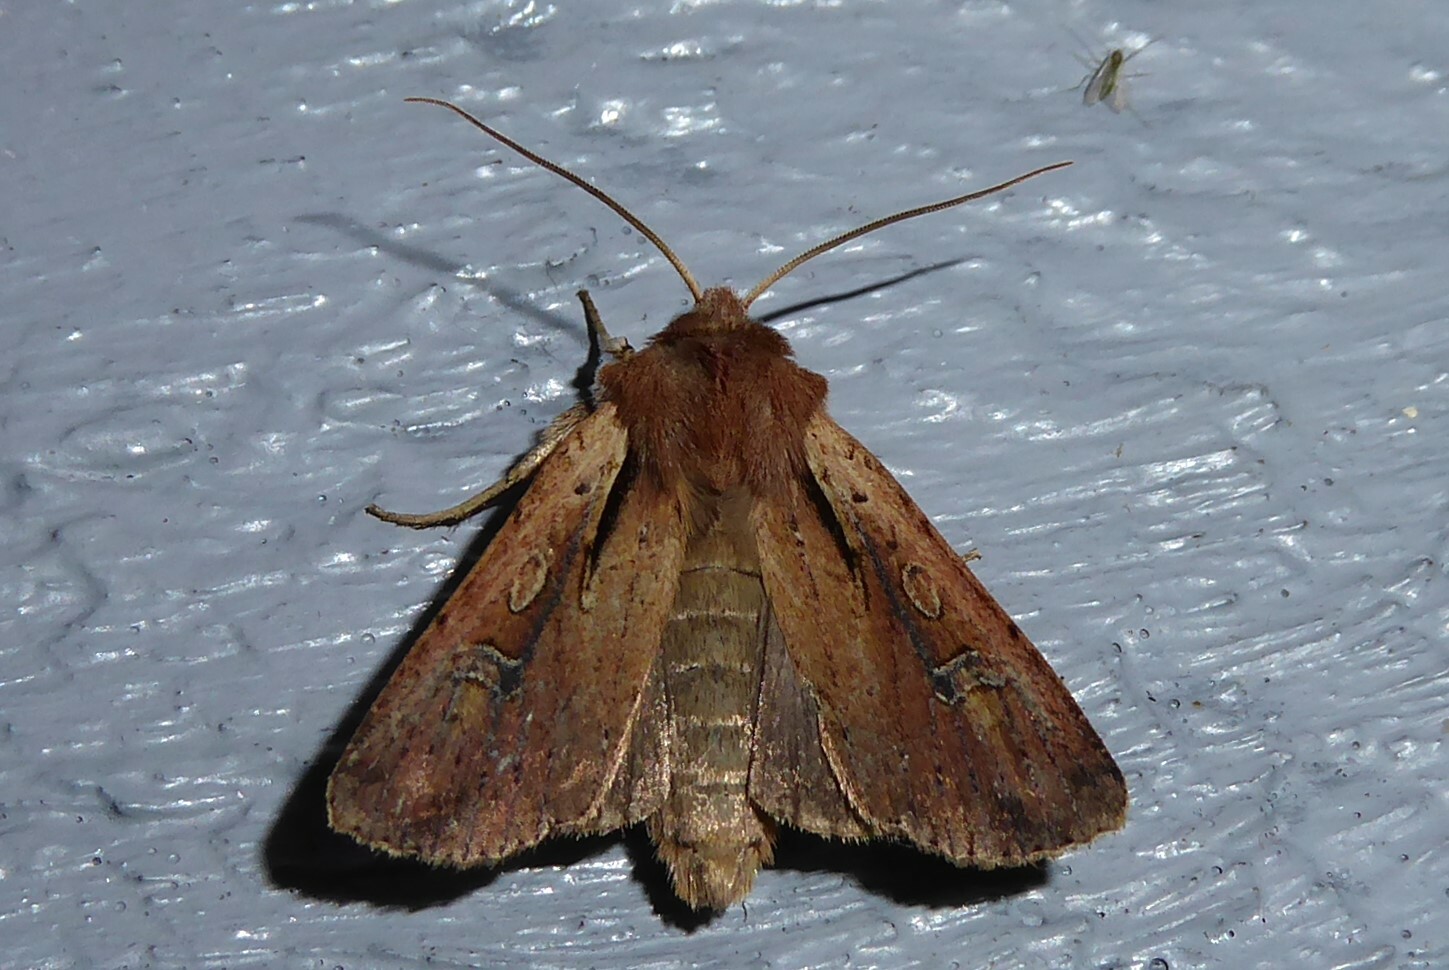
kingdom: Animalia
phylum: Arthropoda
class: Insecta
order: Lepidoptera
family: Noctuidae
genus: Ichneutica
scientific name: Ichneutica atristriga
